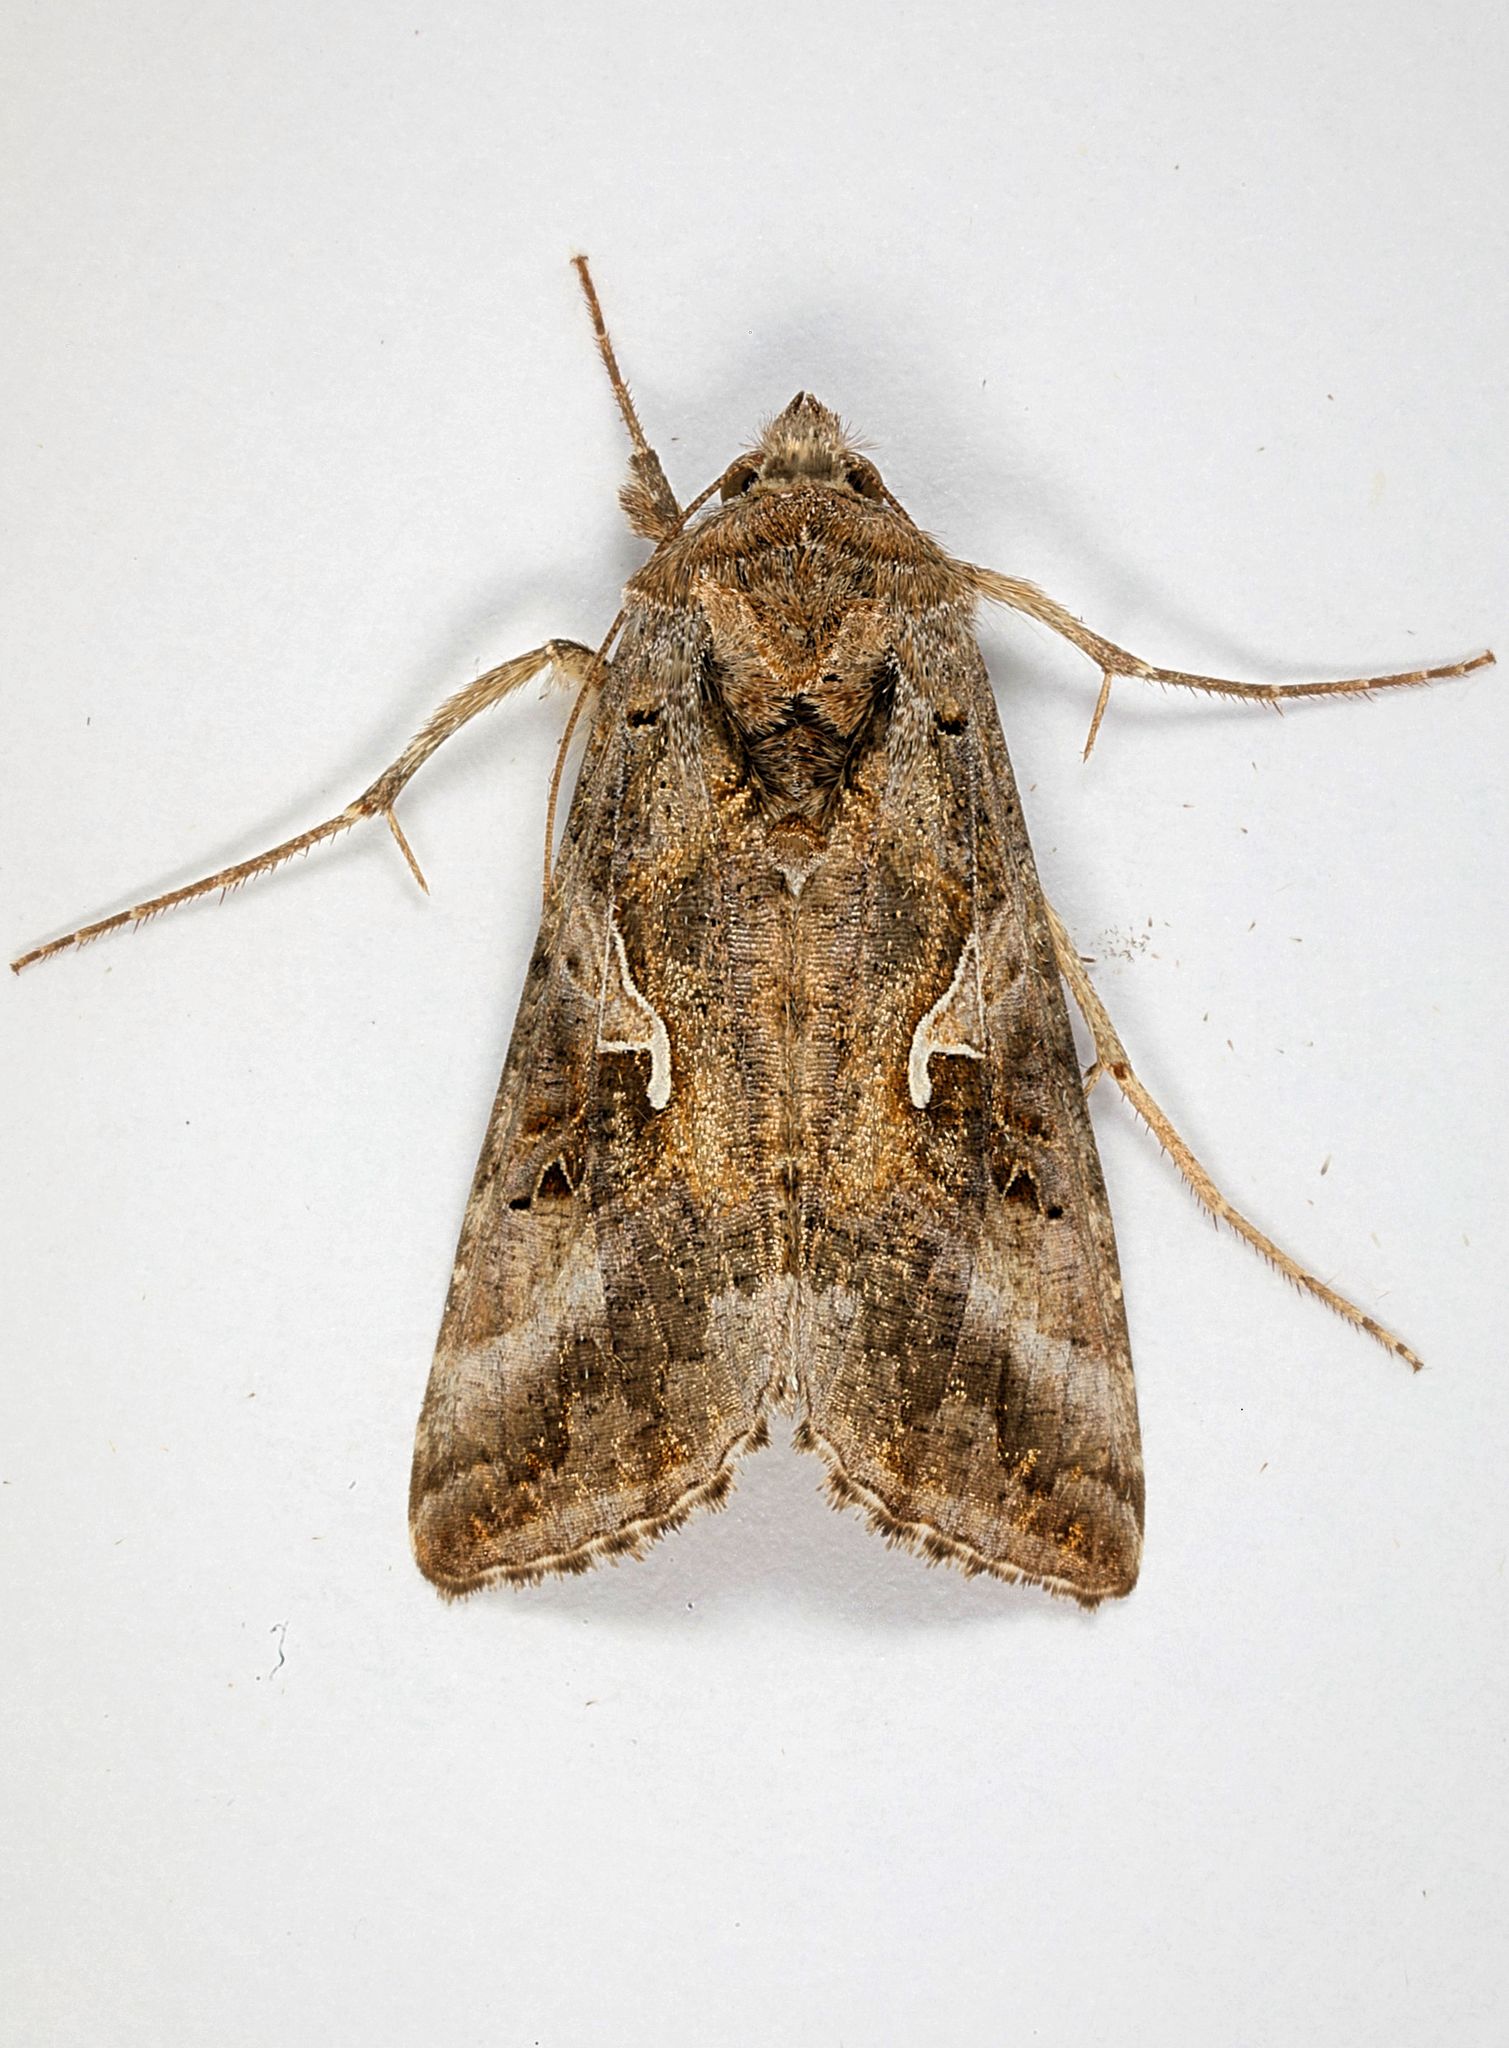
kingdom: Animalia
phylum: Arthropoda
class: Insecta
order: Lepidoptera
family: Noctuidae
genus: Autographa
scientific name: Autographa gamma
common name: Silver y
